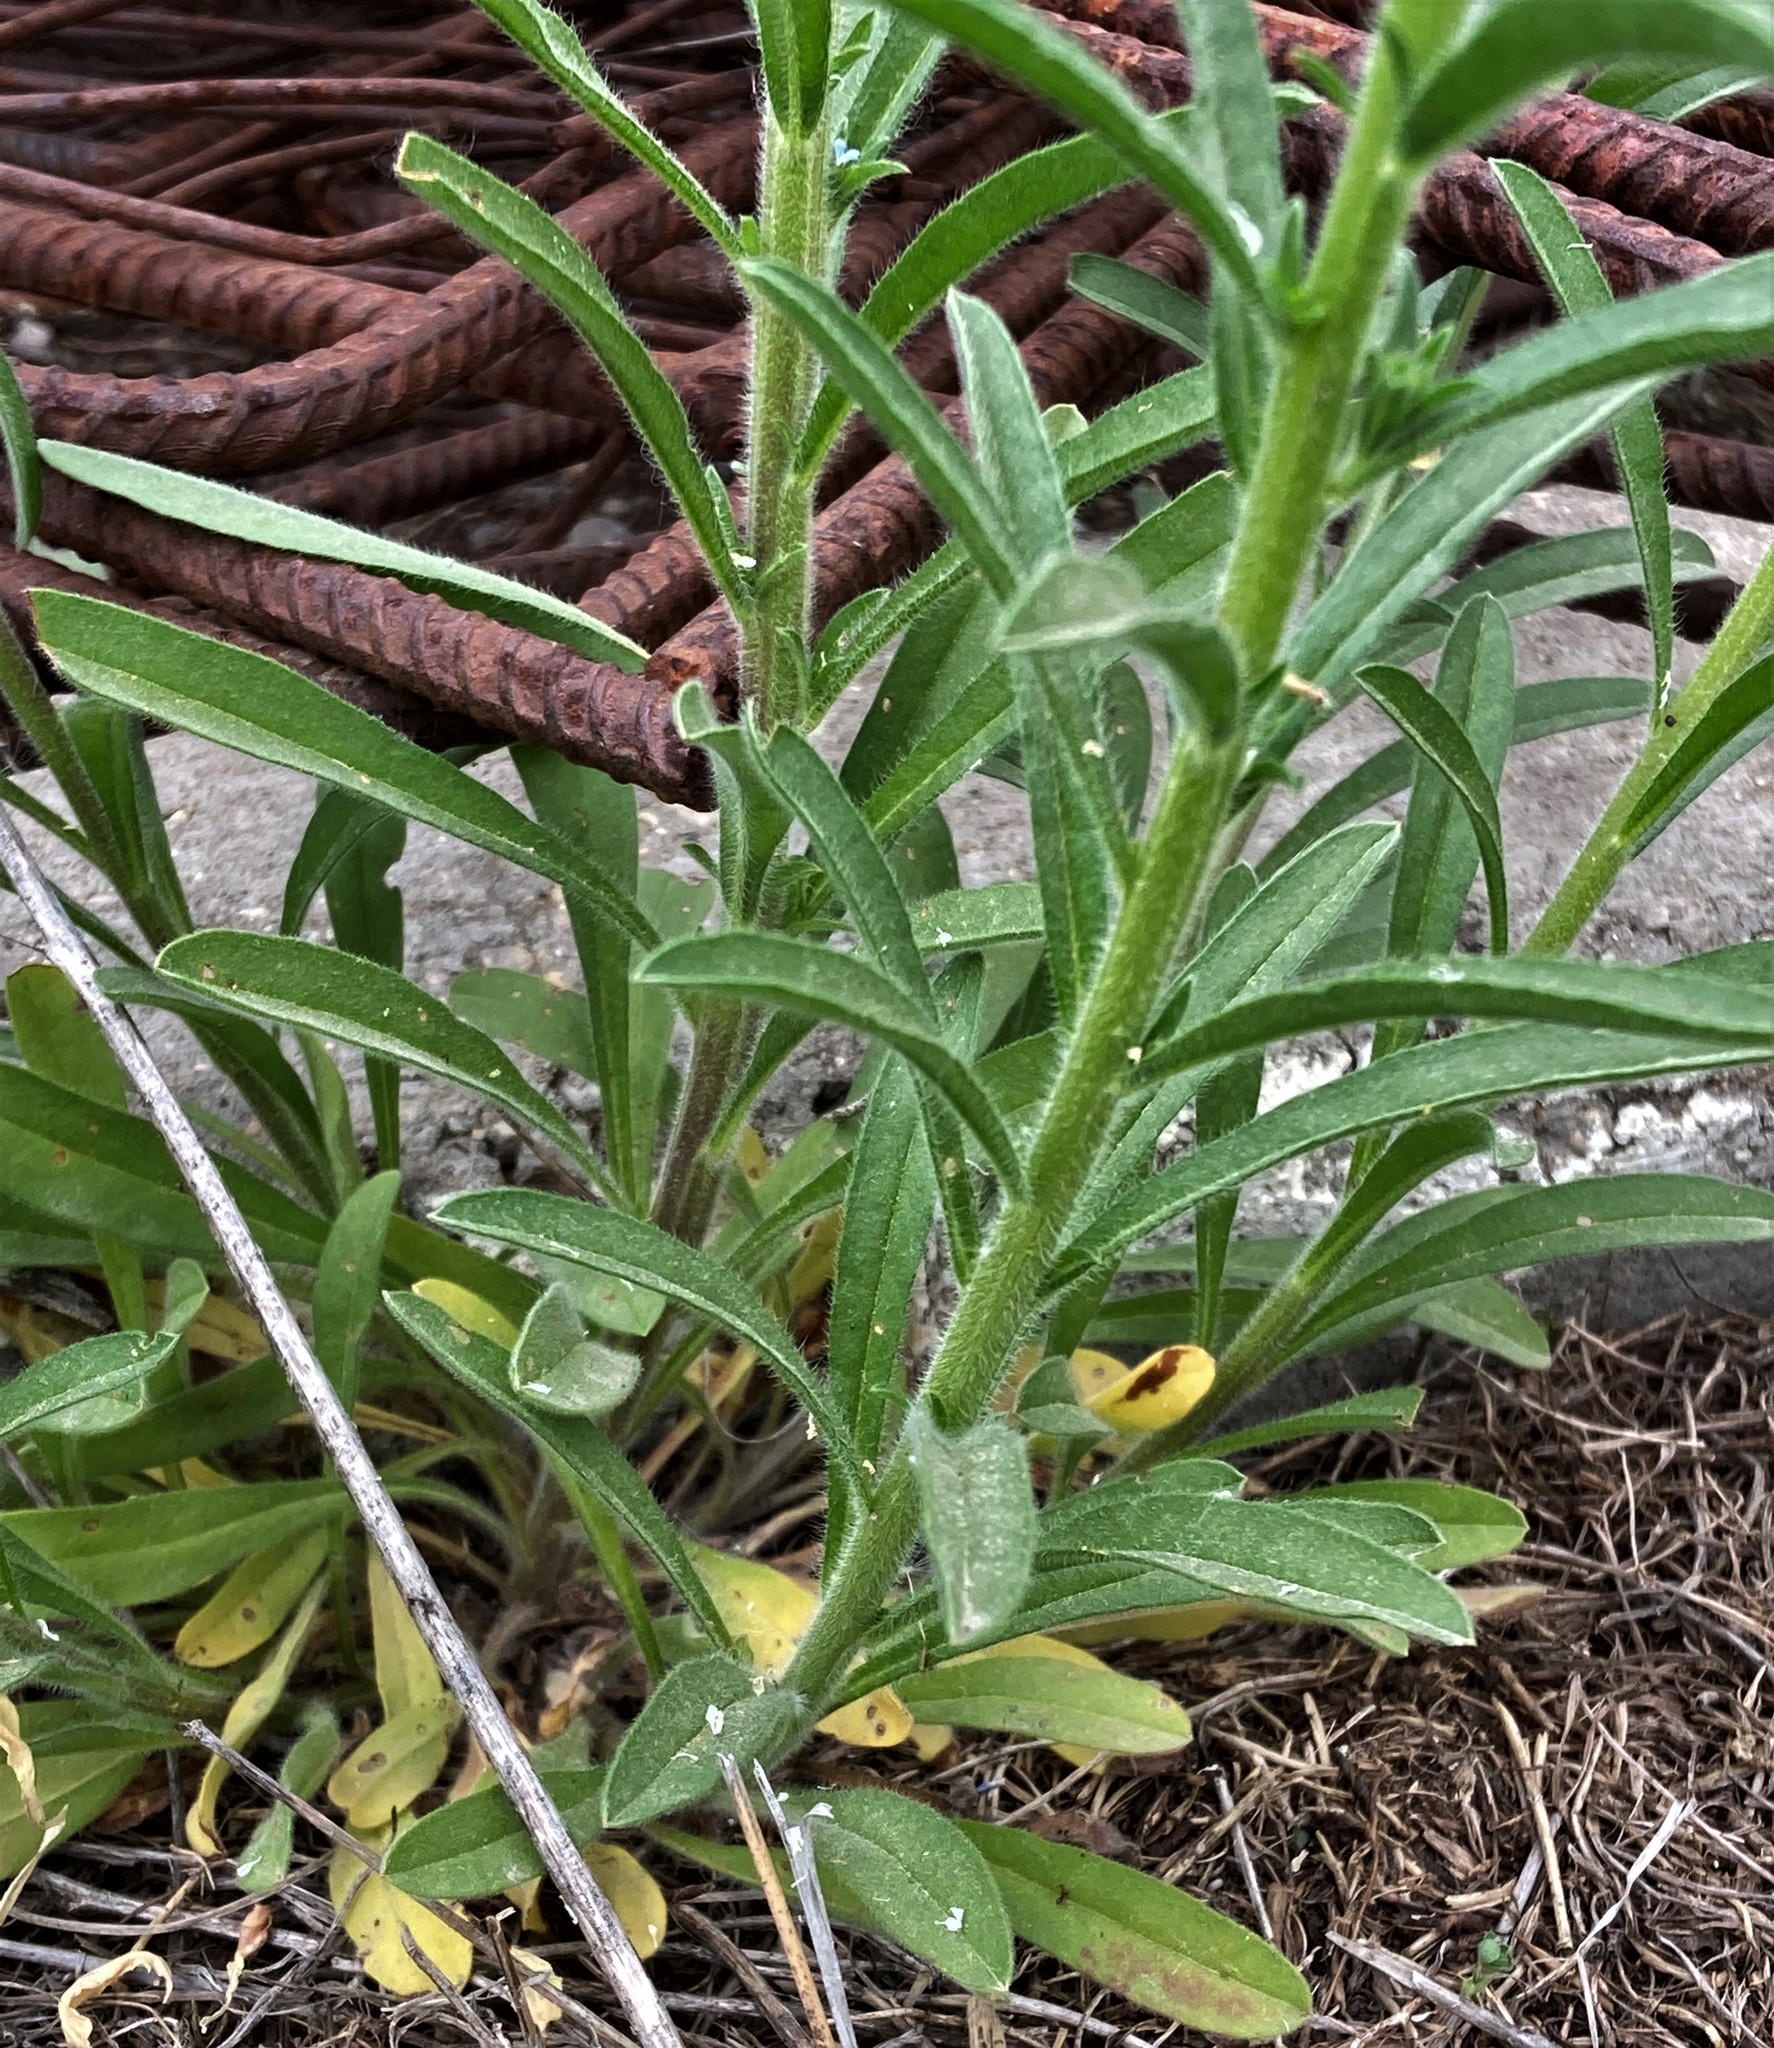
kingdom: Plantae
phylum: Tracheophyta
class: Magnoliopsida
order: Boraginales
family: Boraginaceae
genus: Lappula
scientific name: Lappula squarrosa
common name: European stickseed
